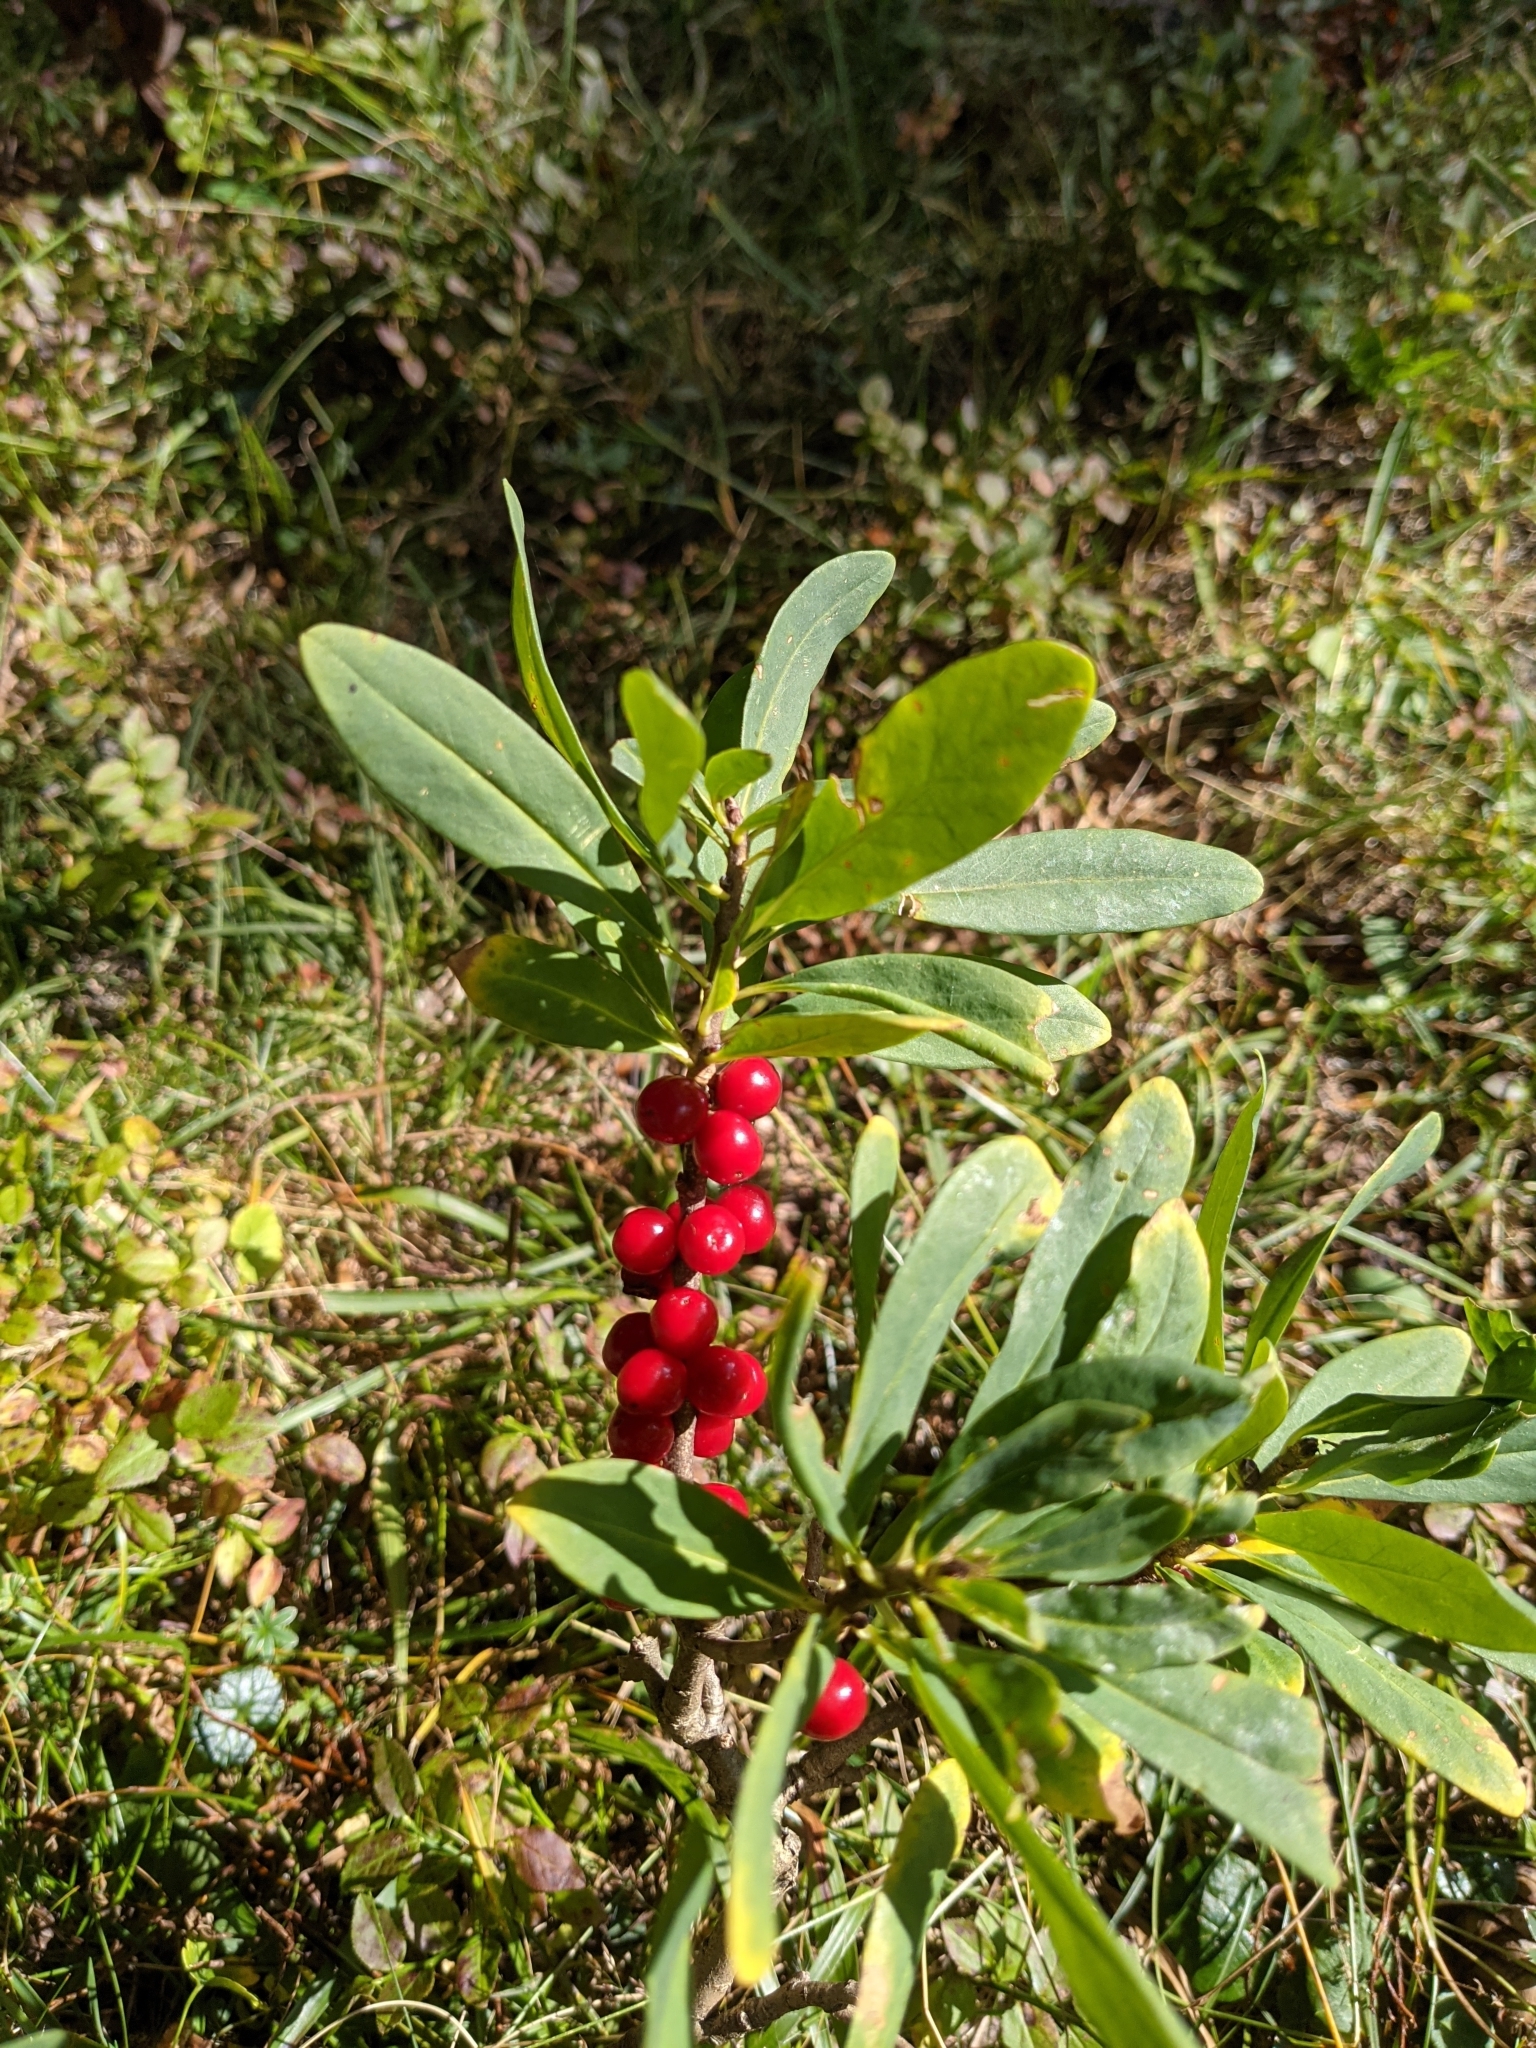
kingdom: Plantae
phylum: Tracheophyta
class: Magnoliopsida
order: Malvales
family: Thymelaeaceae
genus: Daphne
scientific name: Daphne mezereum
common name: Mezereon
